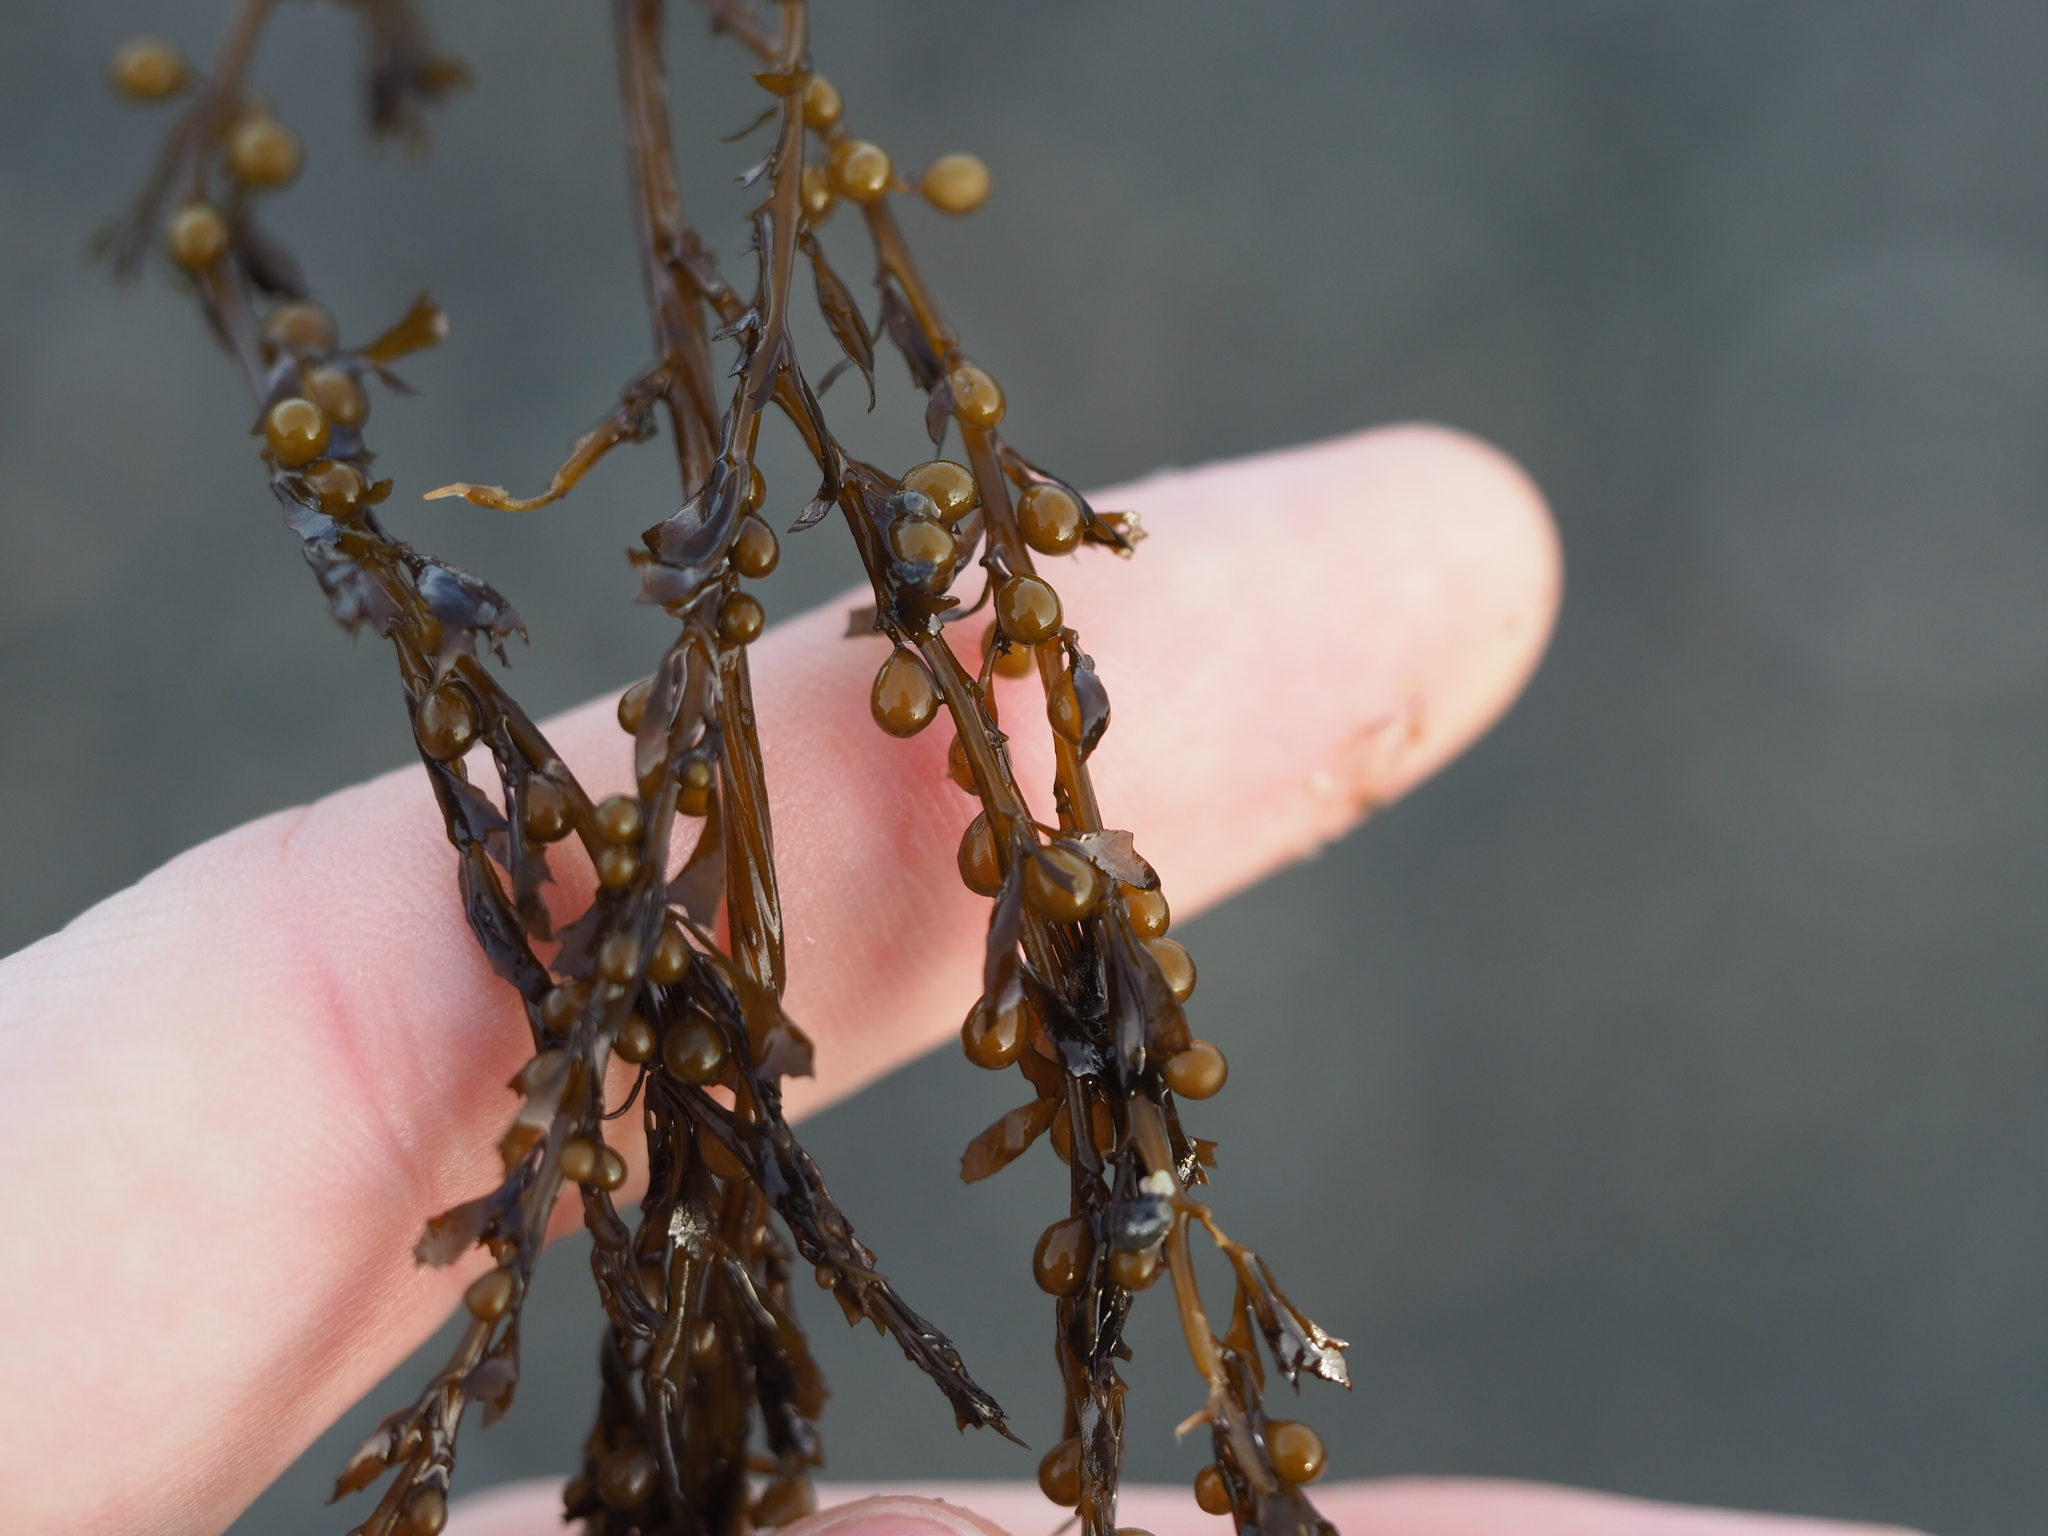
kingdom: Chromista
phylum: Ochrophyta
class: Phaeophyceae
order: Fucales
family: Sargassaceae
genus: Sargassum
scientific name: Sargassum muticum
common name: Japweed
